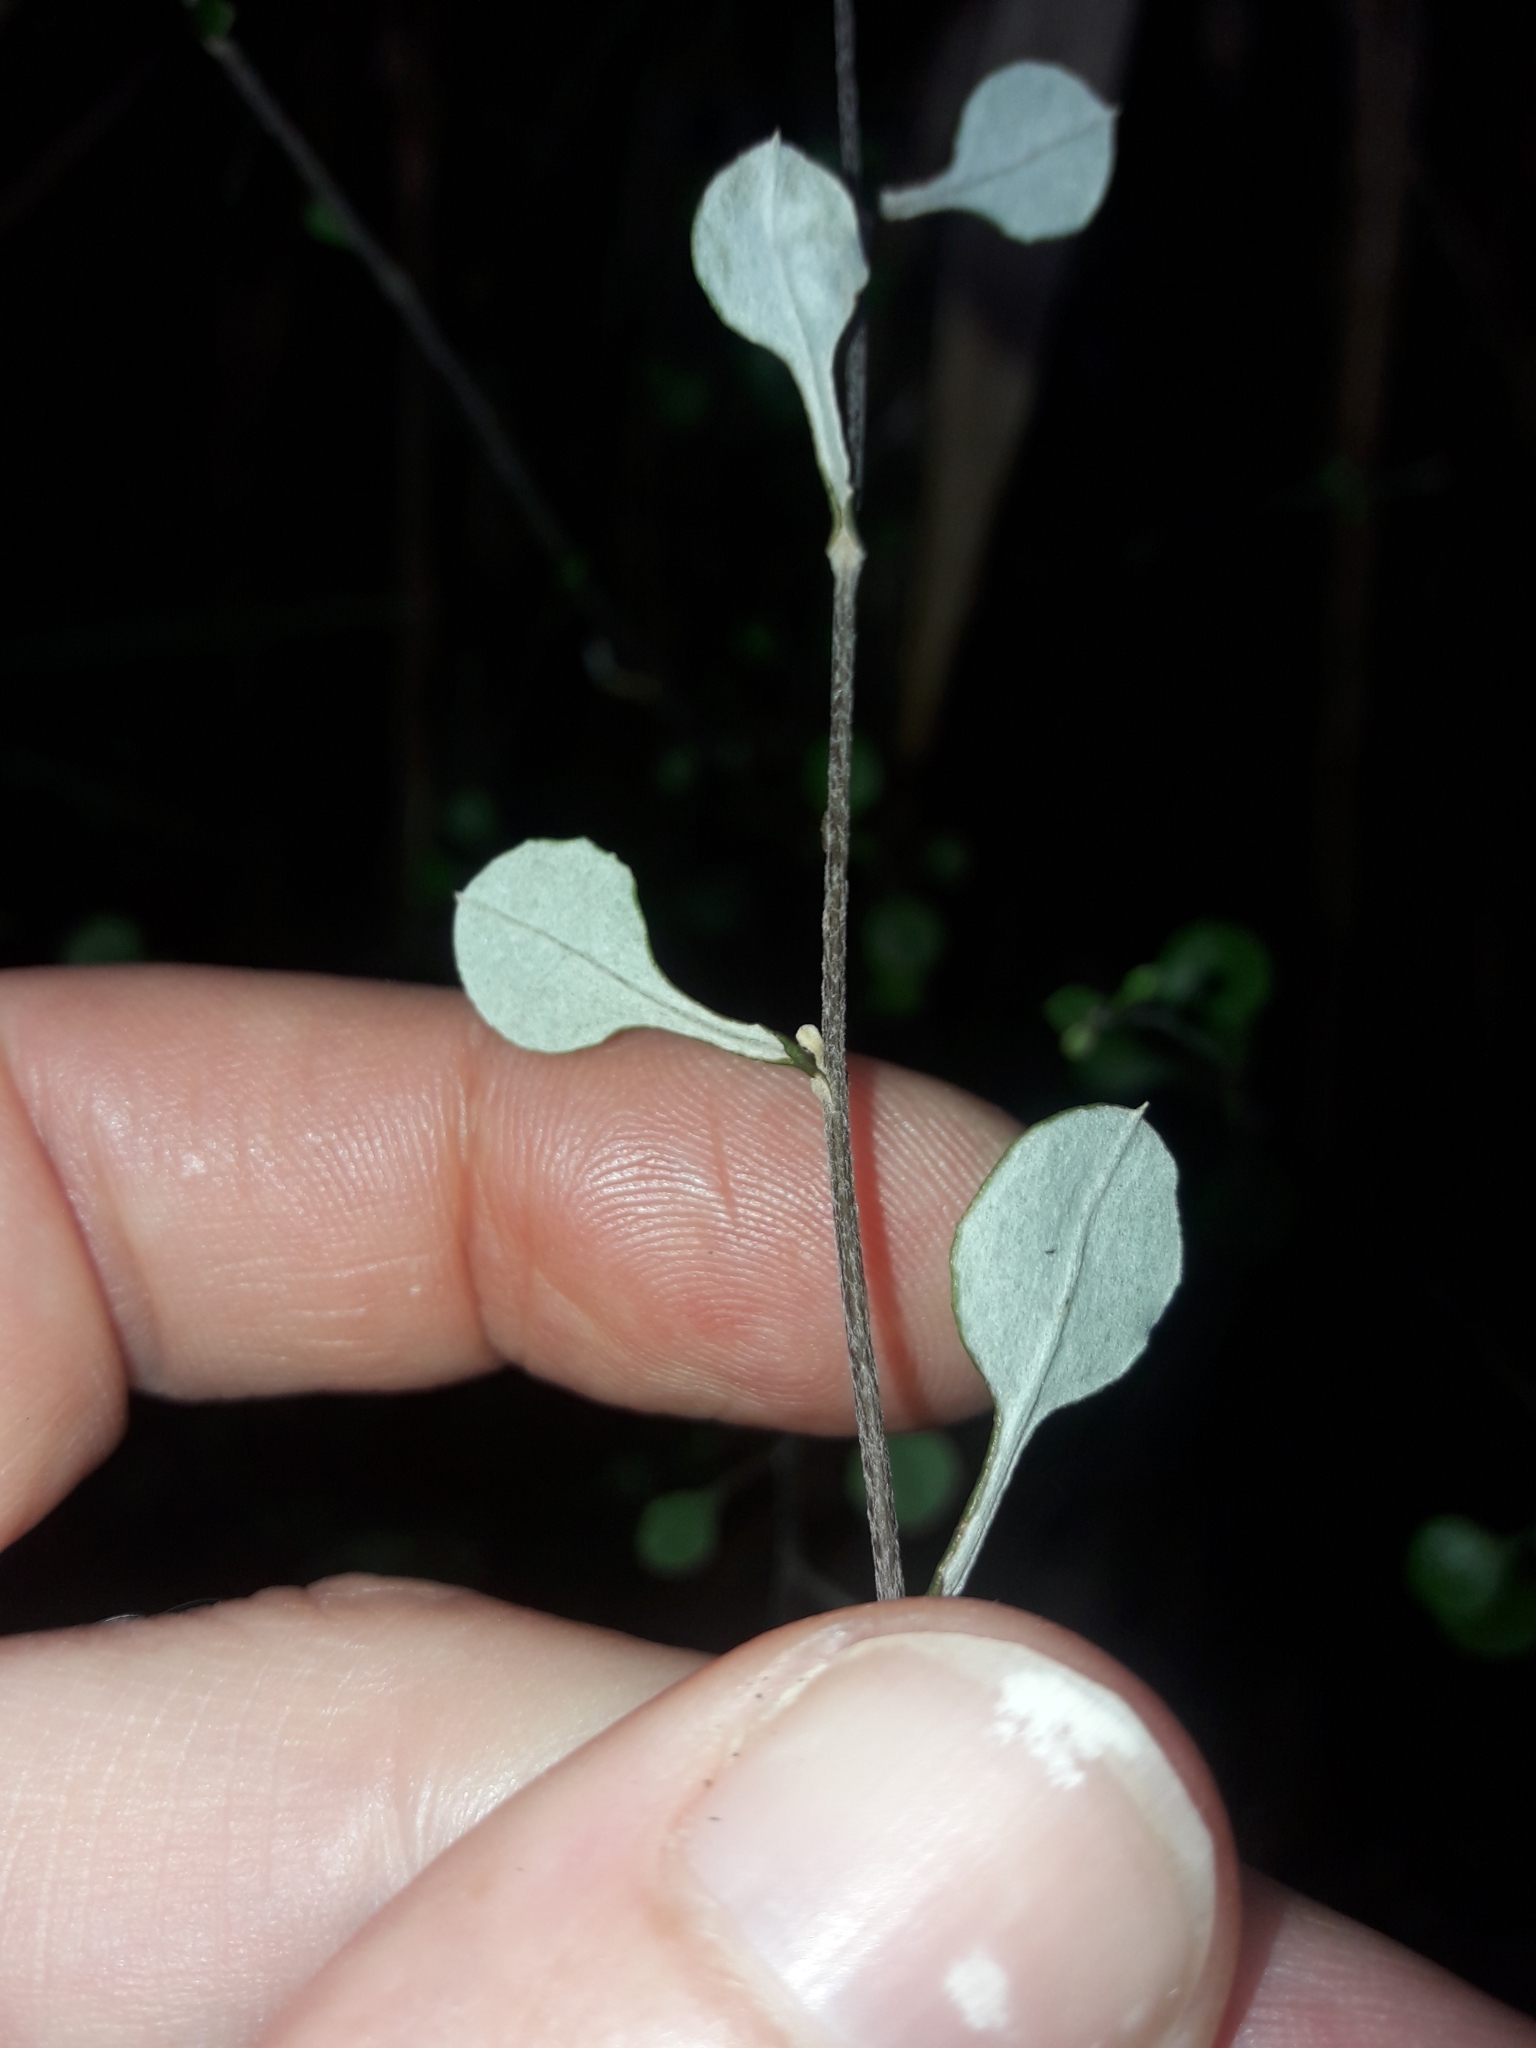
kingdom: Plantae
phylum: Tracheophyta
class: Magnoliopsida
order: Asterales
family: Asteraceae
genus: Ozothamnus
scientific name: Ozothamnus glomeratus
